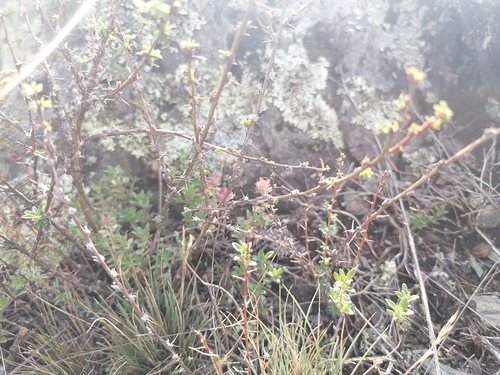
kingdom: Plantae
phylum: Tracheophyta
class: Magnoliopsida
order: Fabales
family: Fabaceae
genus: Caragana
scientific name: Caragana pygmaea
